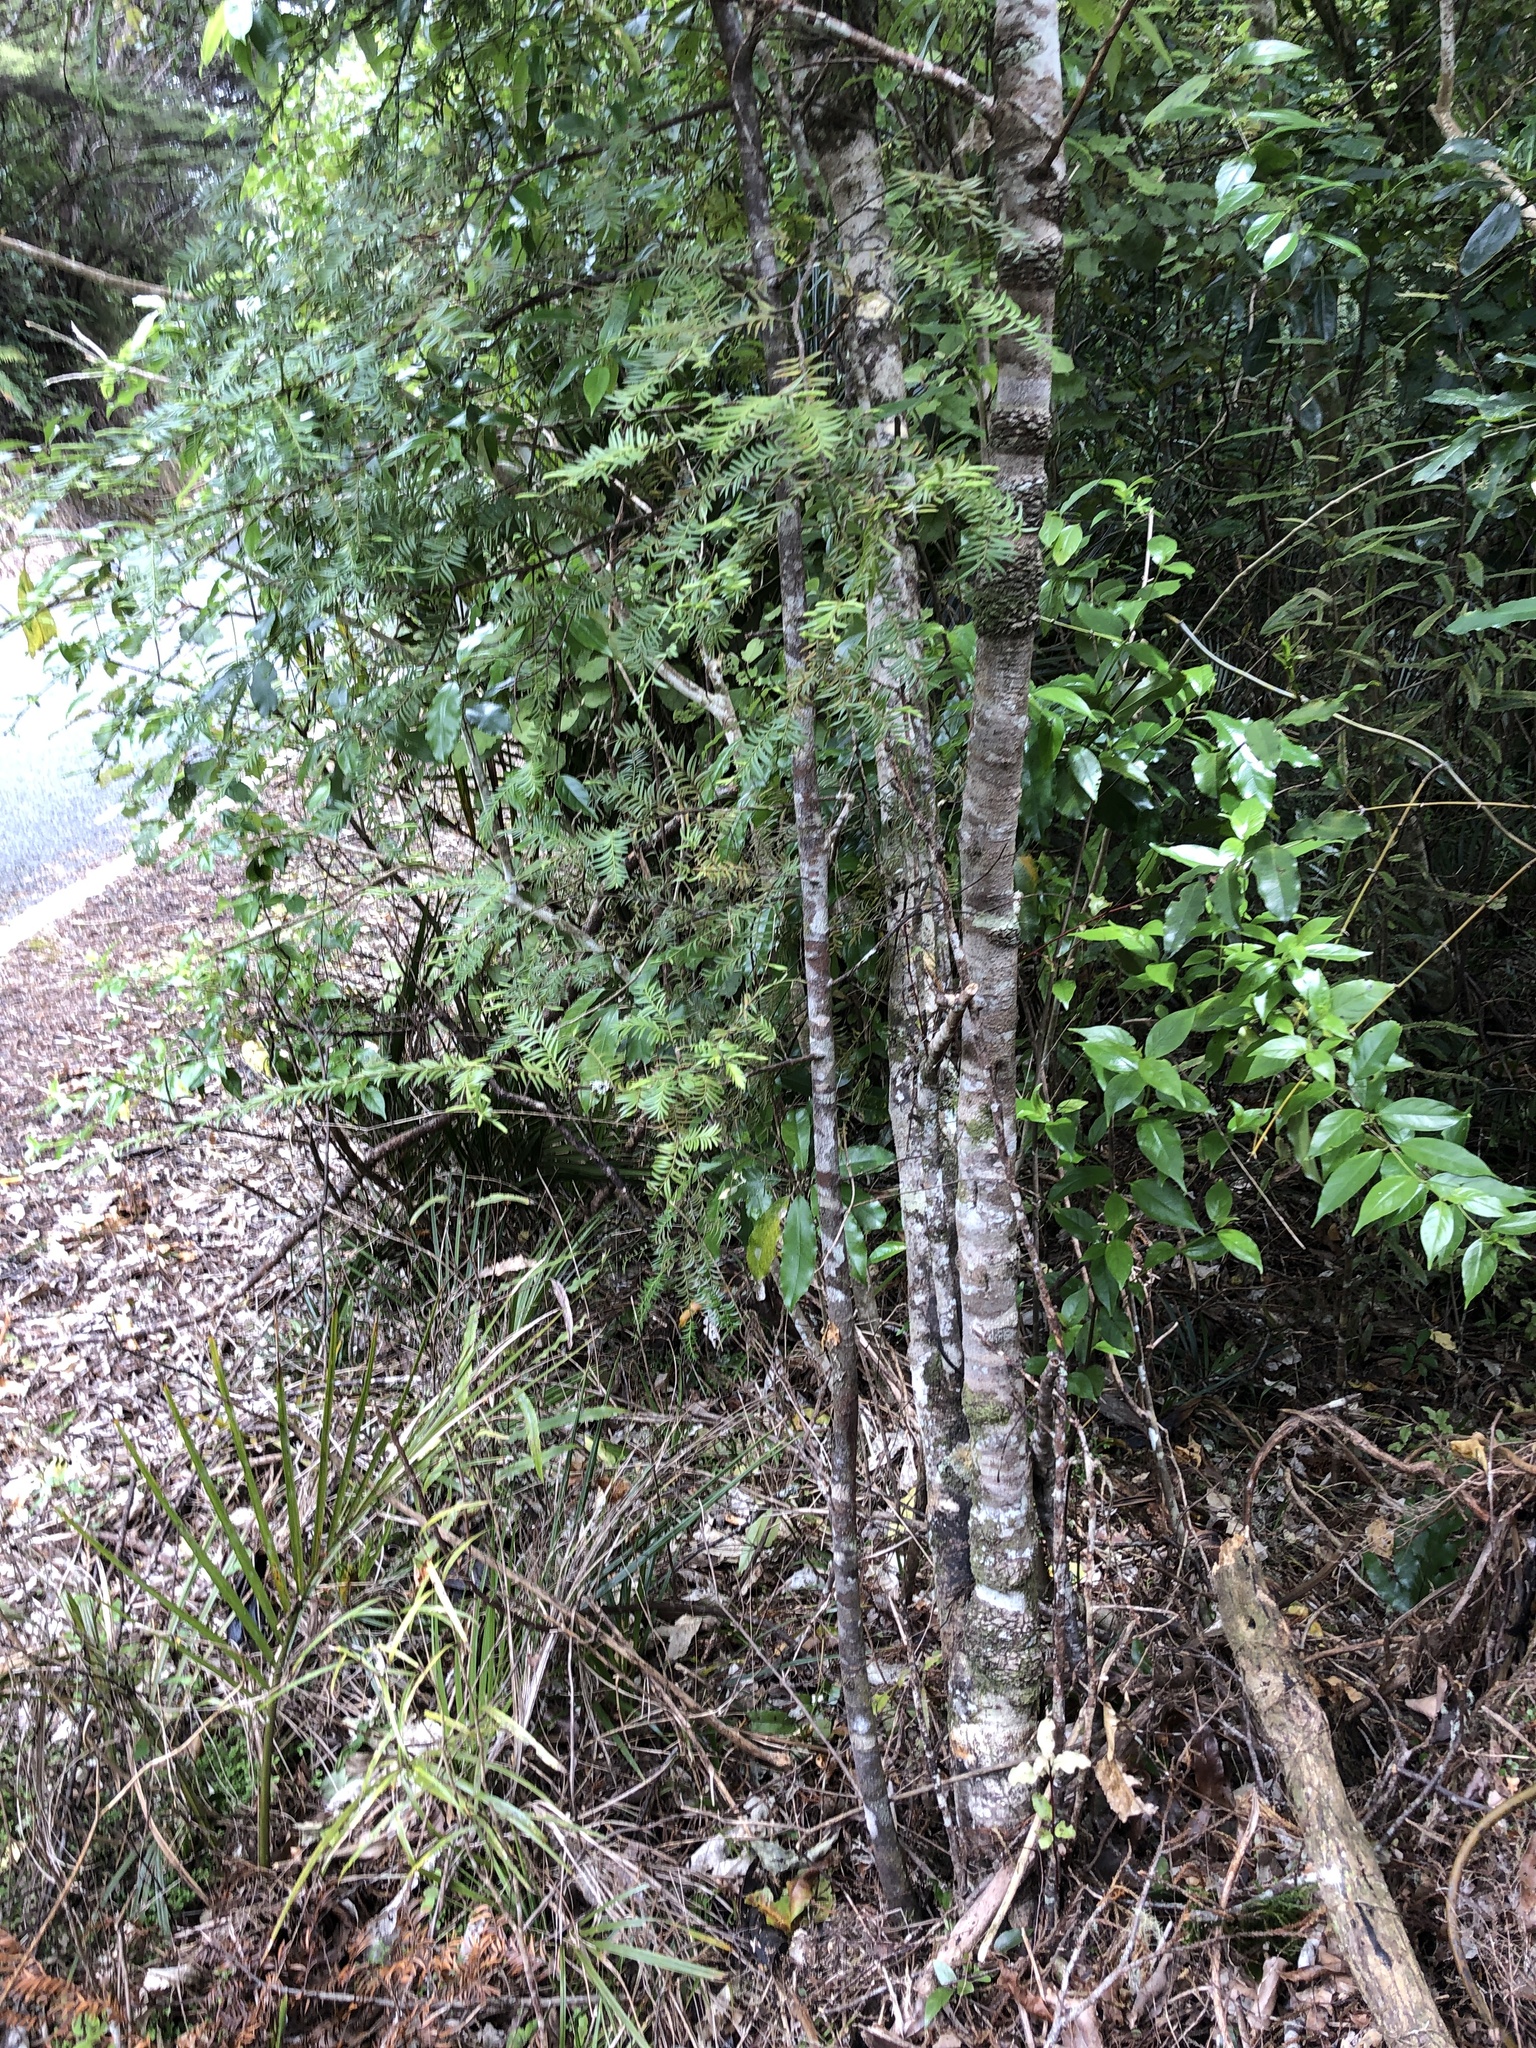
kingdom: Plantae
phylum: Tracheophyta
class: Pinopsida
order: Pinales
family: Podocarpaceae
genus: Prumnopitys
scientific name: Prumnopitys ferruginea
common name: Brown pine
